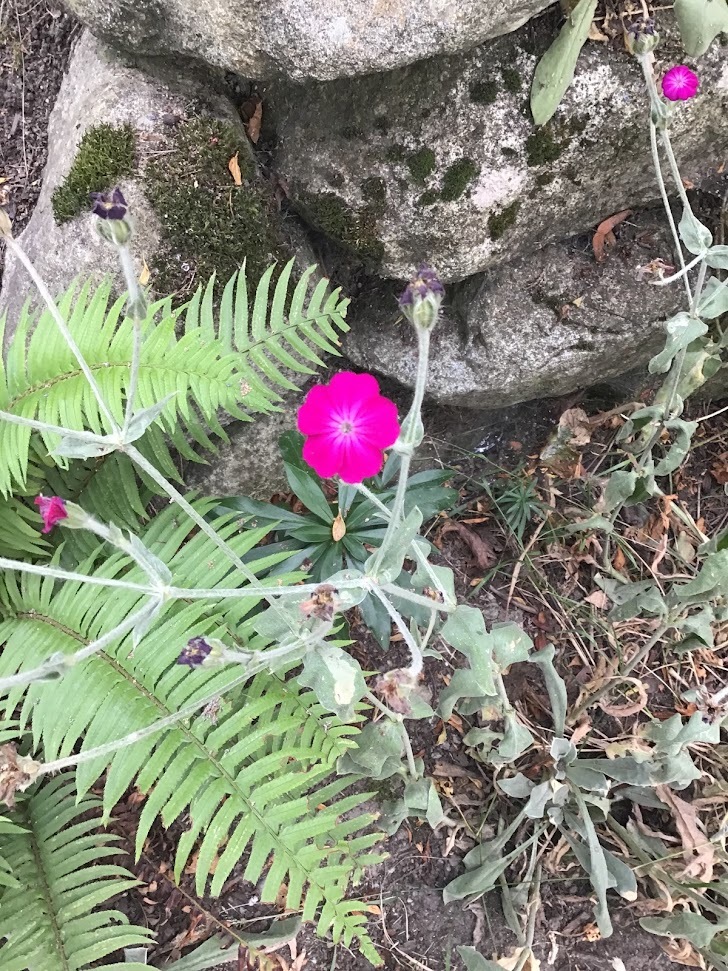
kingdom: Plantae
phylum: Tracheophyta
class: Magnoliopsida
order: Caryophyllales
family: Caryophyllaceae
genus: Silene
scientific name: Silene coronaria
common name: Rose campion
